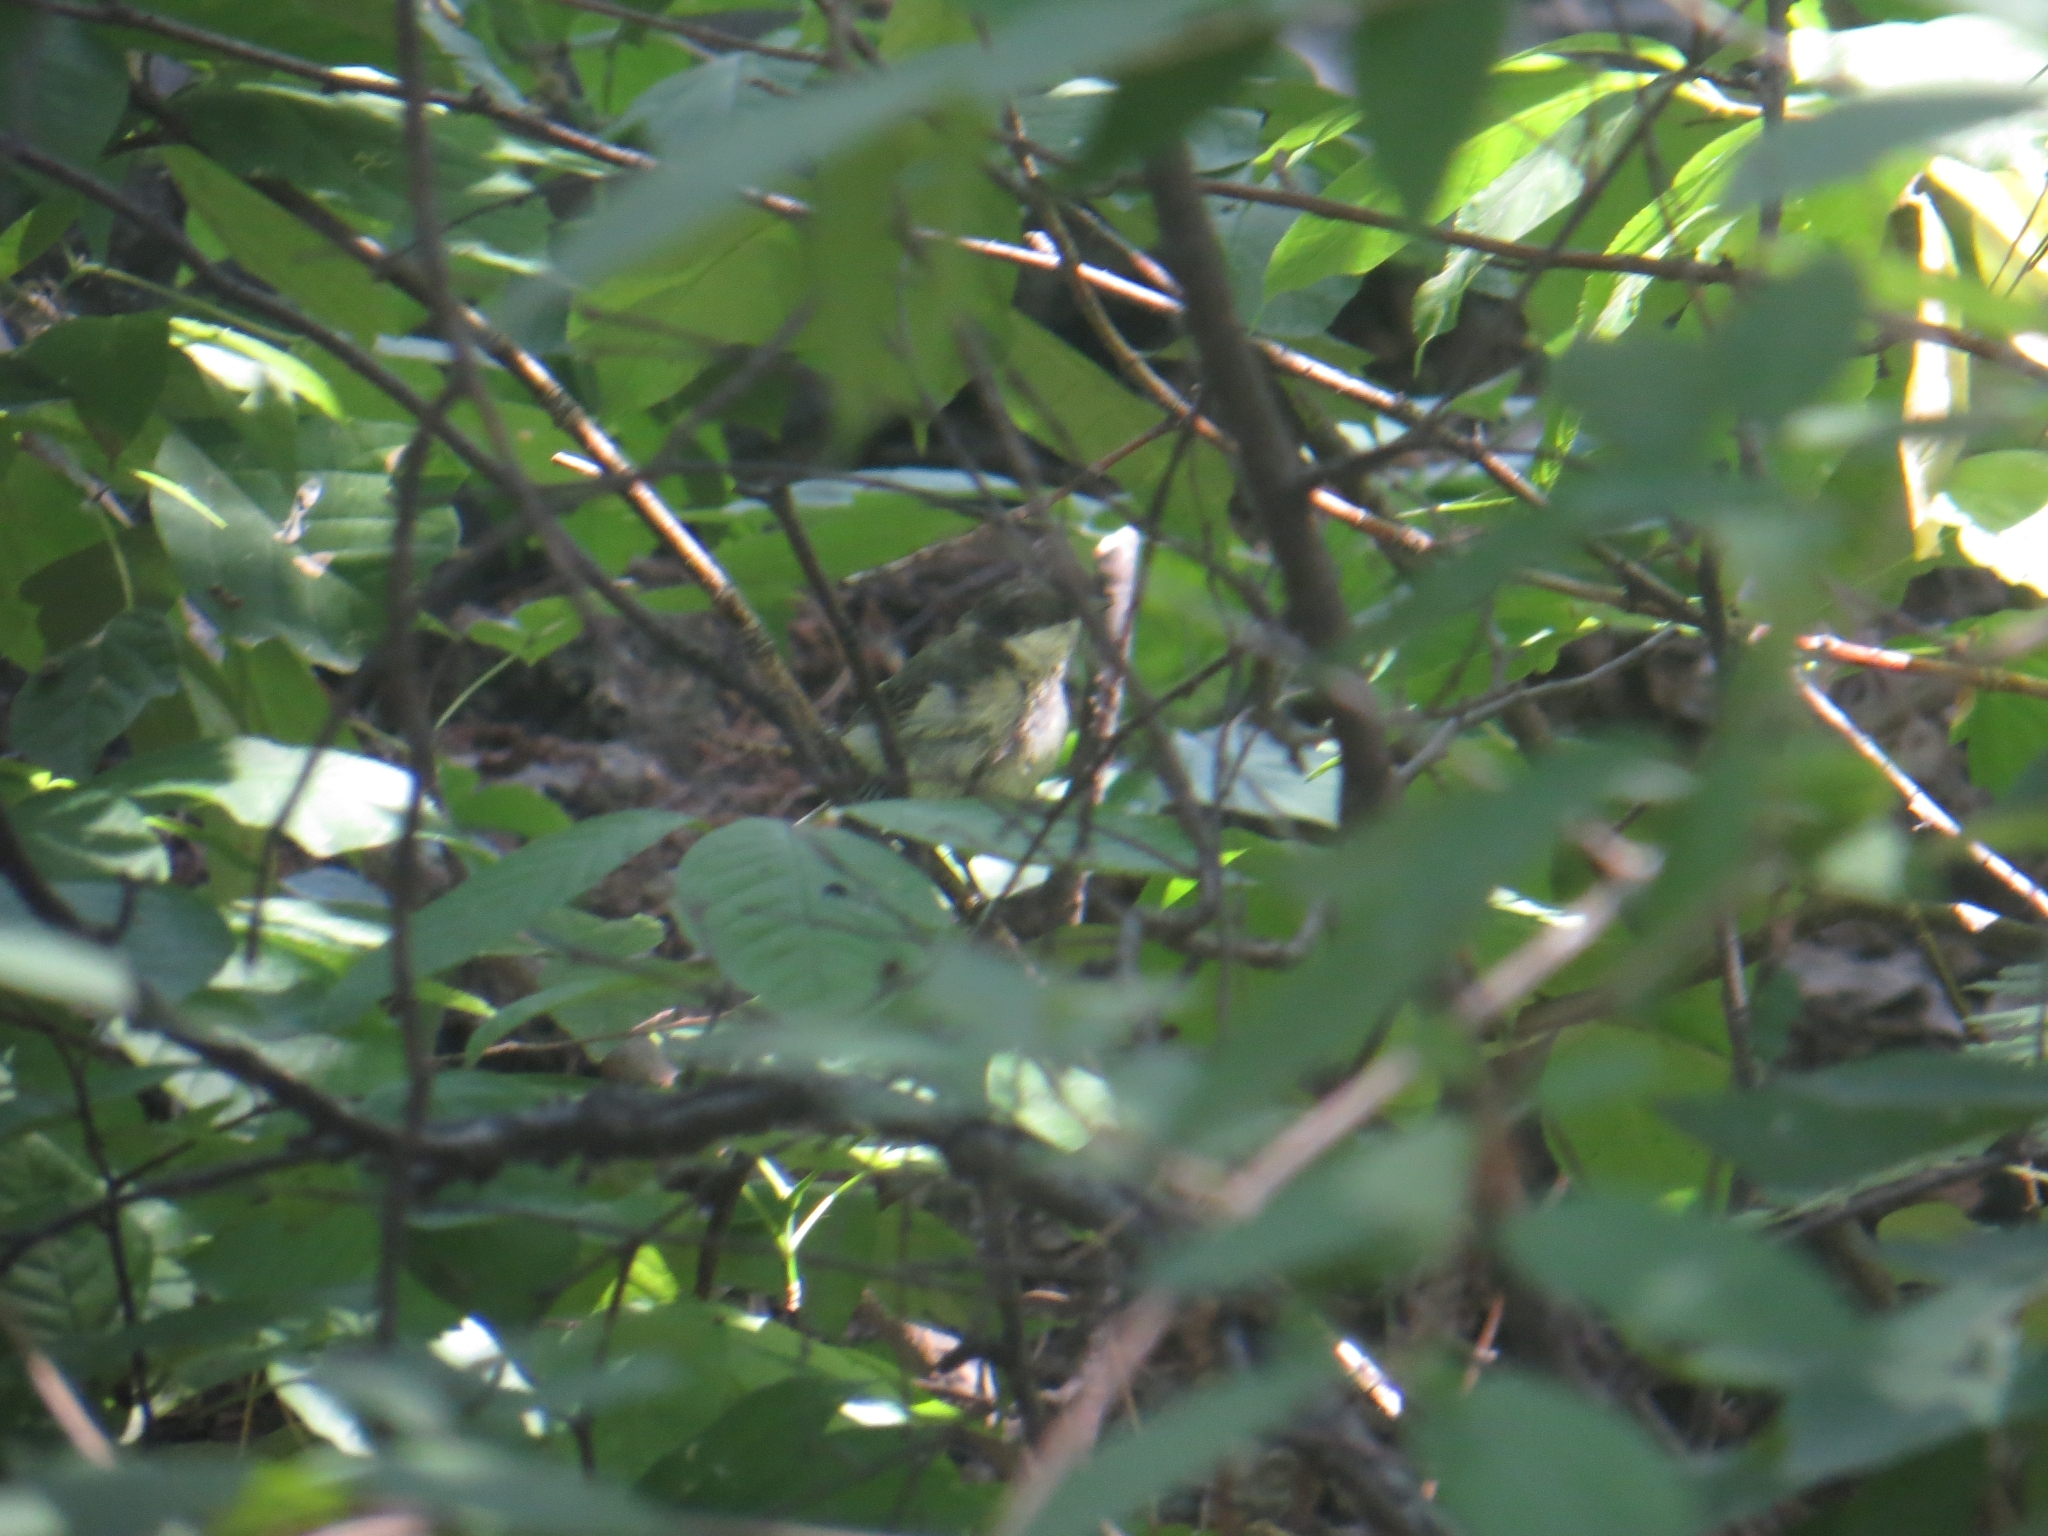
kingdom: Animalia
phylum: Chordata
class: Aves
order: Passeriformes
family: Paridae
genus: Parus
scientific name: Parus major
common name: Great tit
